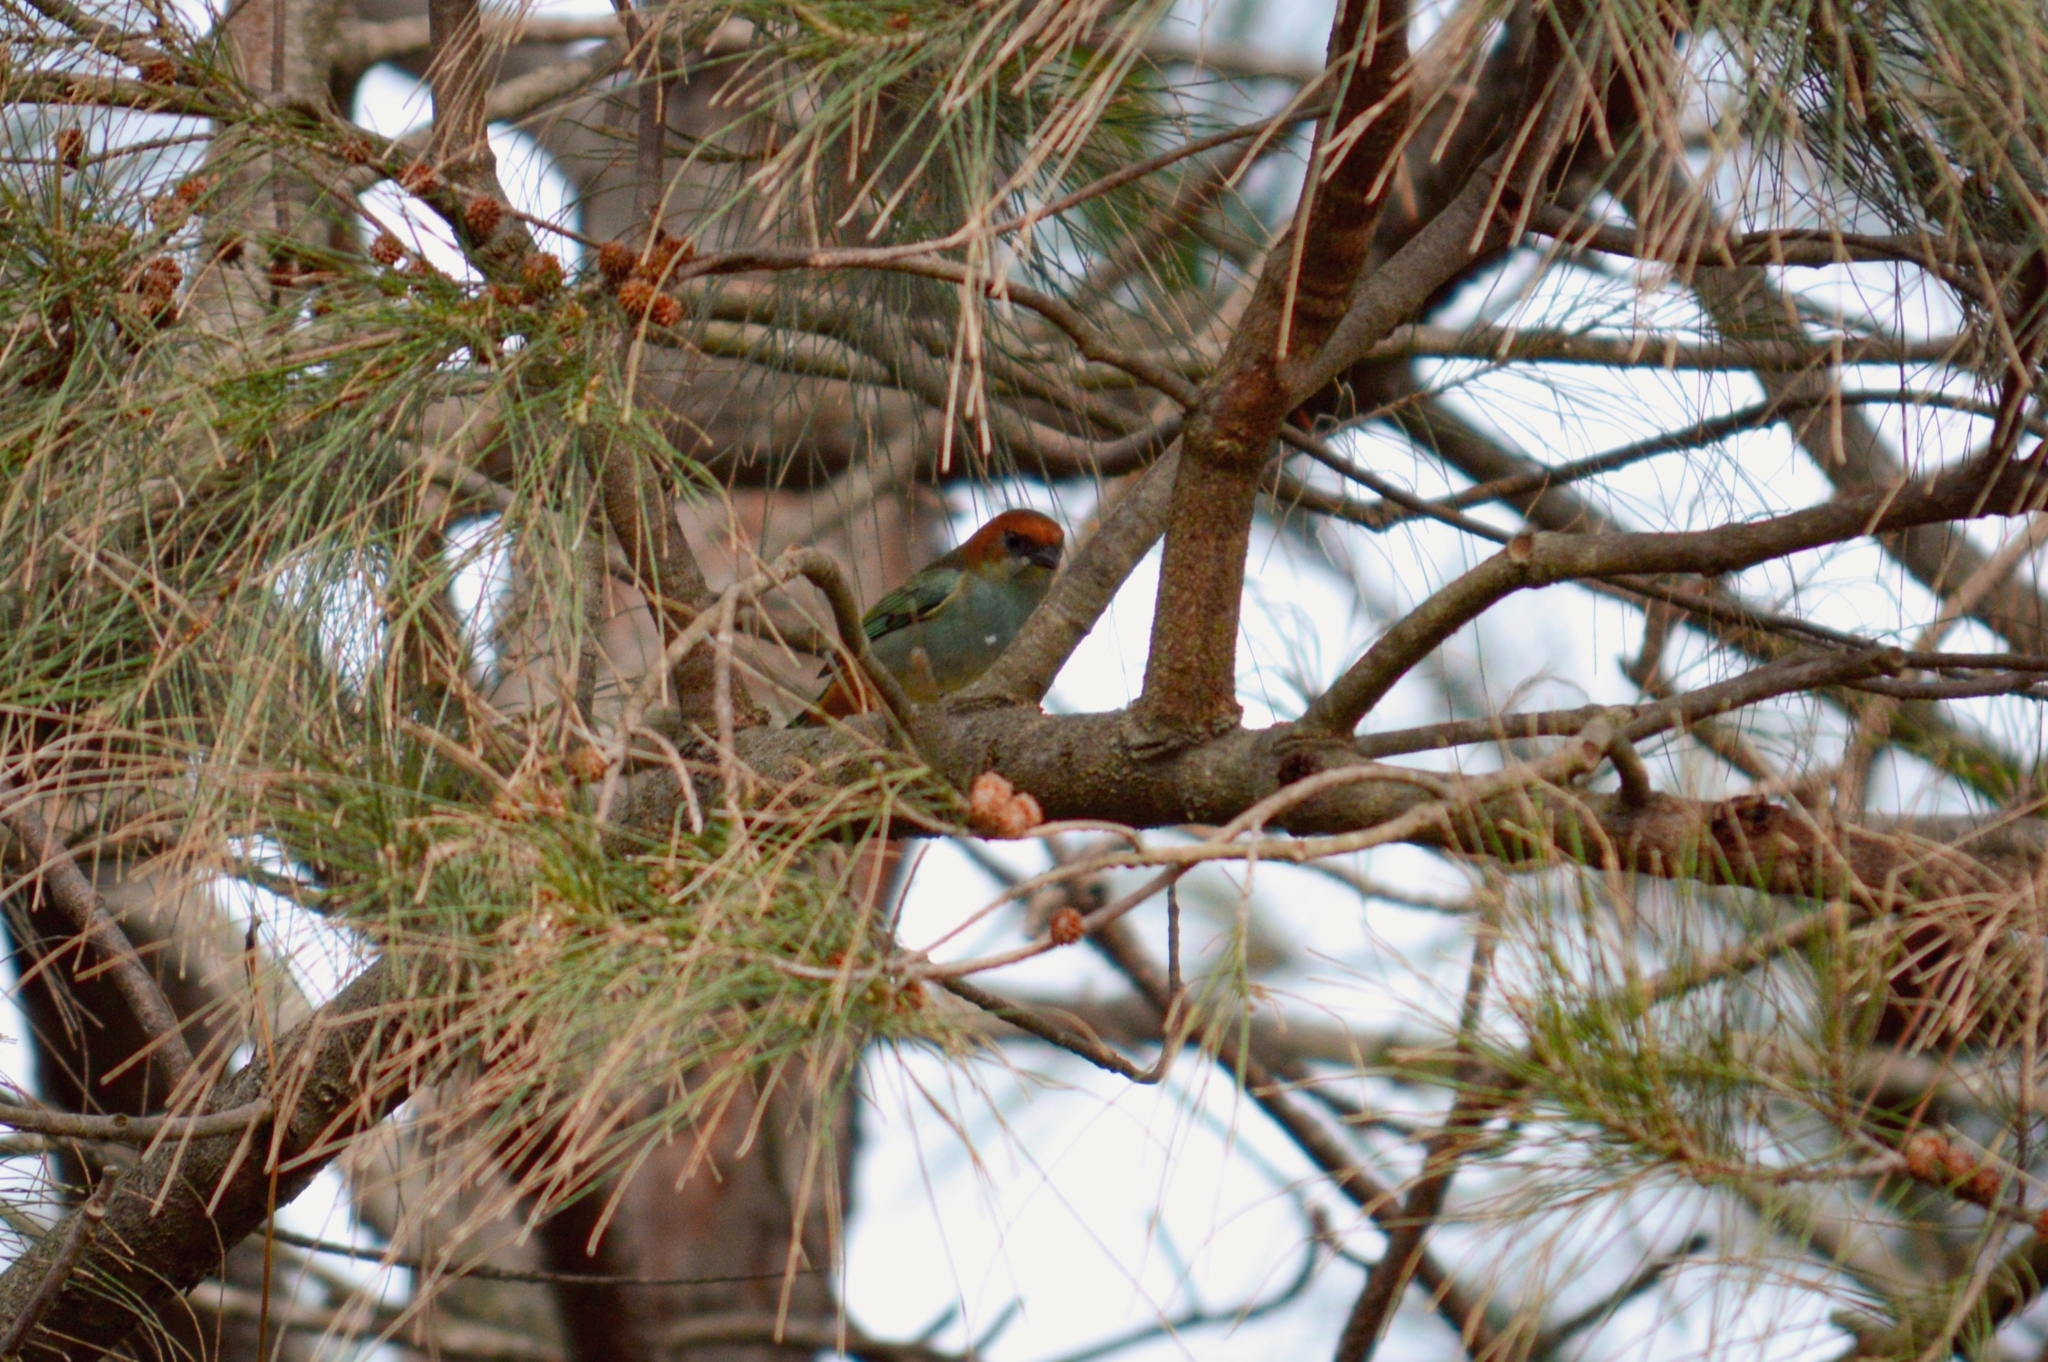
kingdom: Animalia
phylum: Chordata
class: Aves
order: Passeriformes
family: Thraupidae
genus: Stilpnia
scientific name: Stilpnia preciosa
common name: Chestnut-backed tanager
